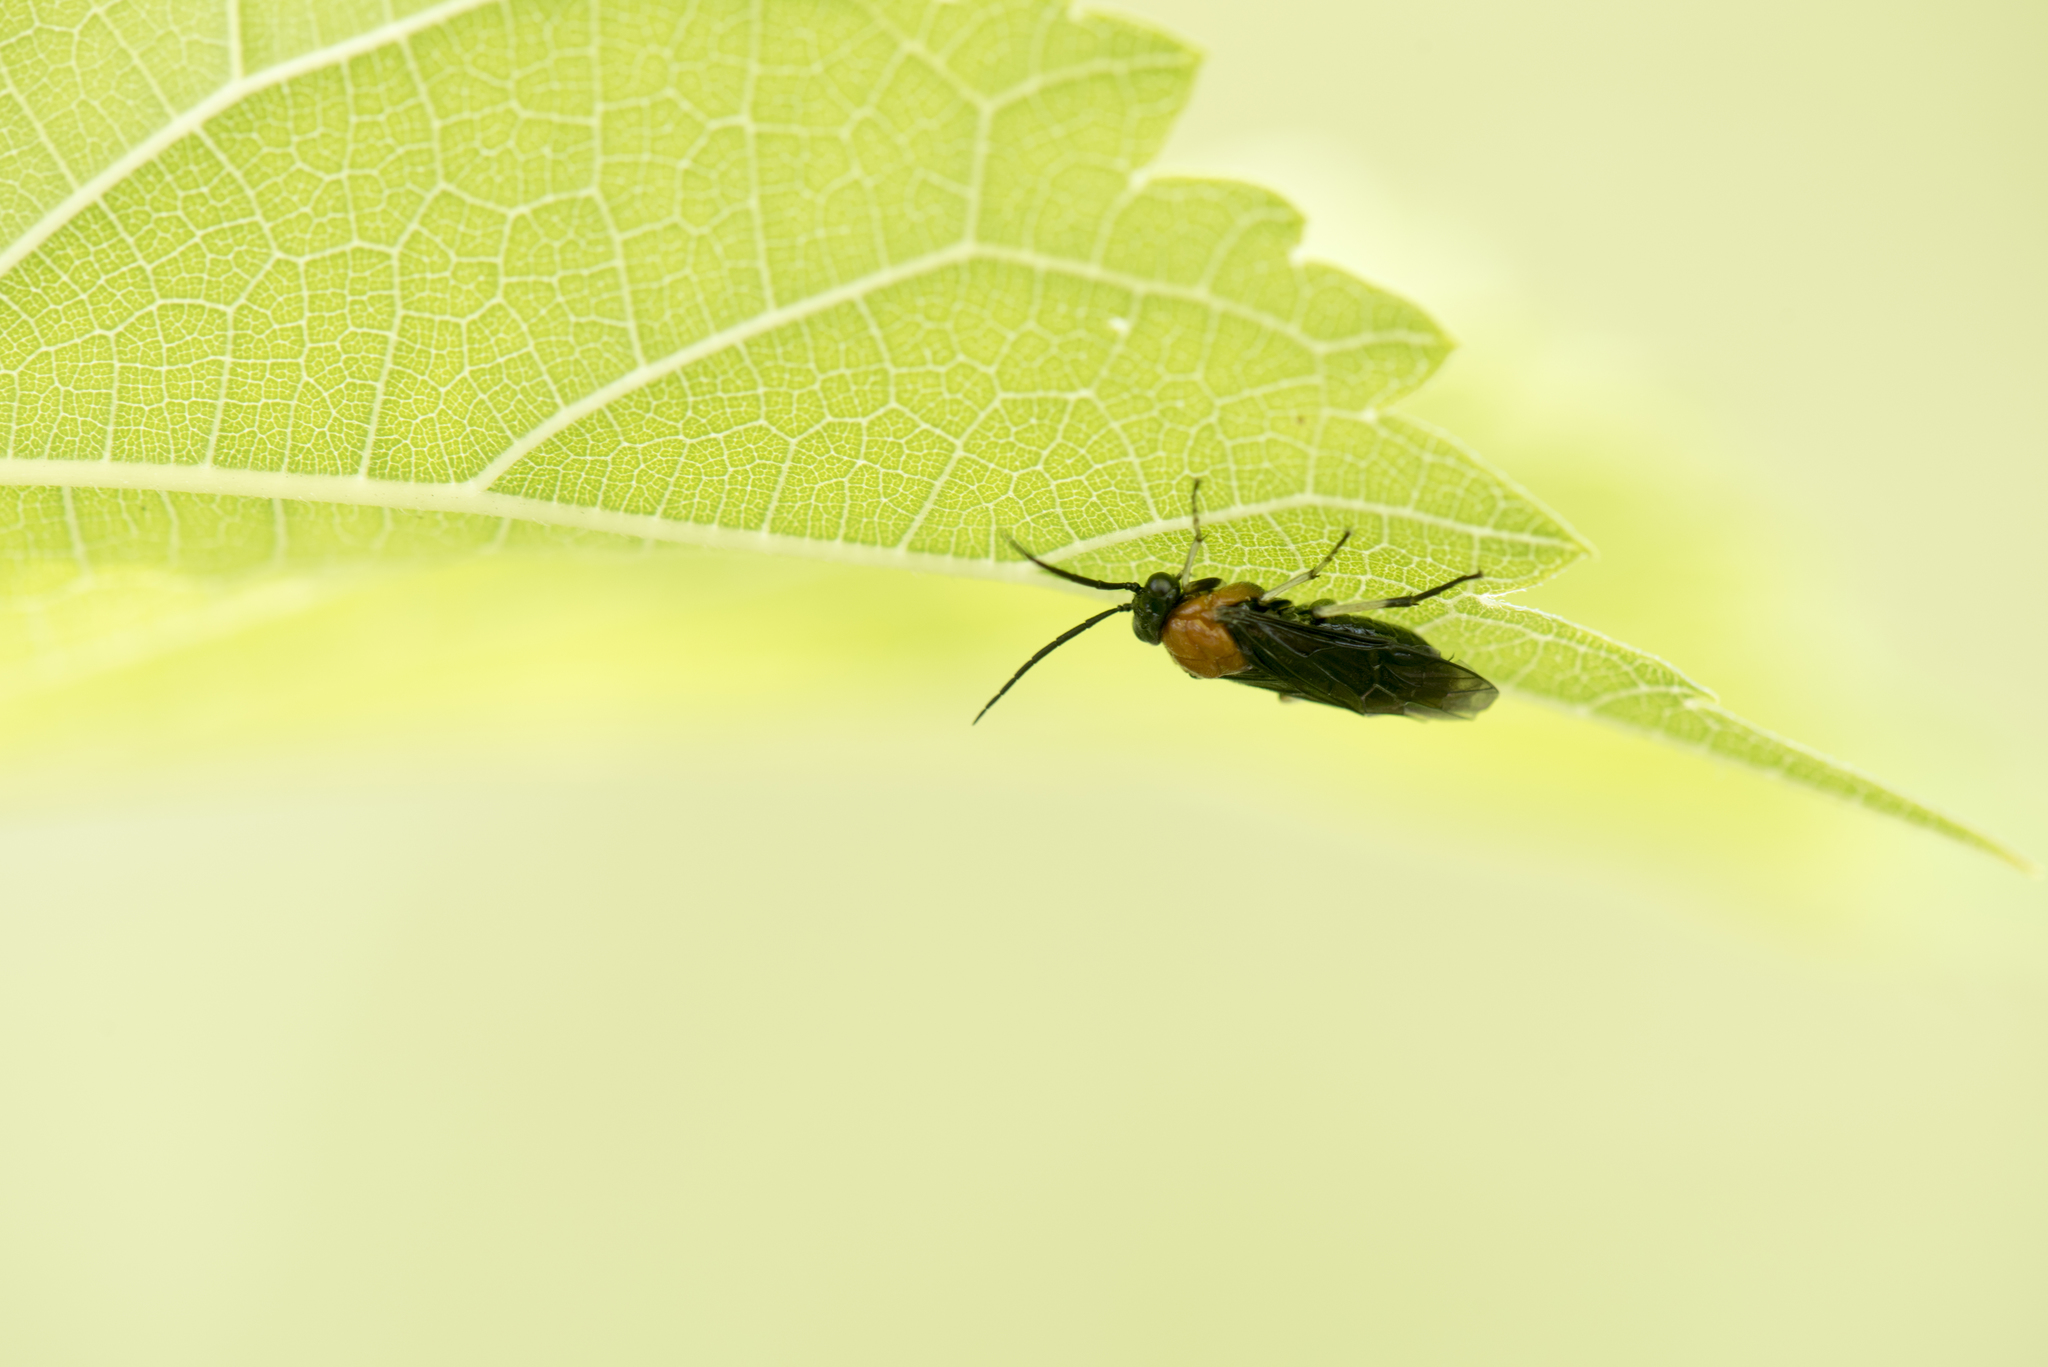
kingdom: Animalia
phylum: Arthropoda
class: Insecta
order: Hymenoptera
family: Tenthredinidae
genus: Moricella
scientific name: Moricella rufonota
